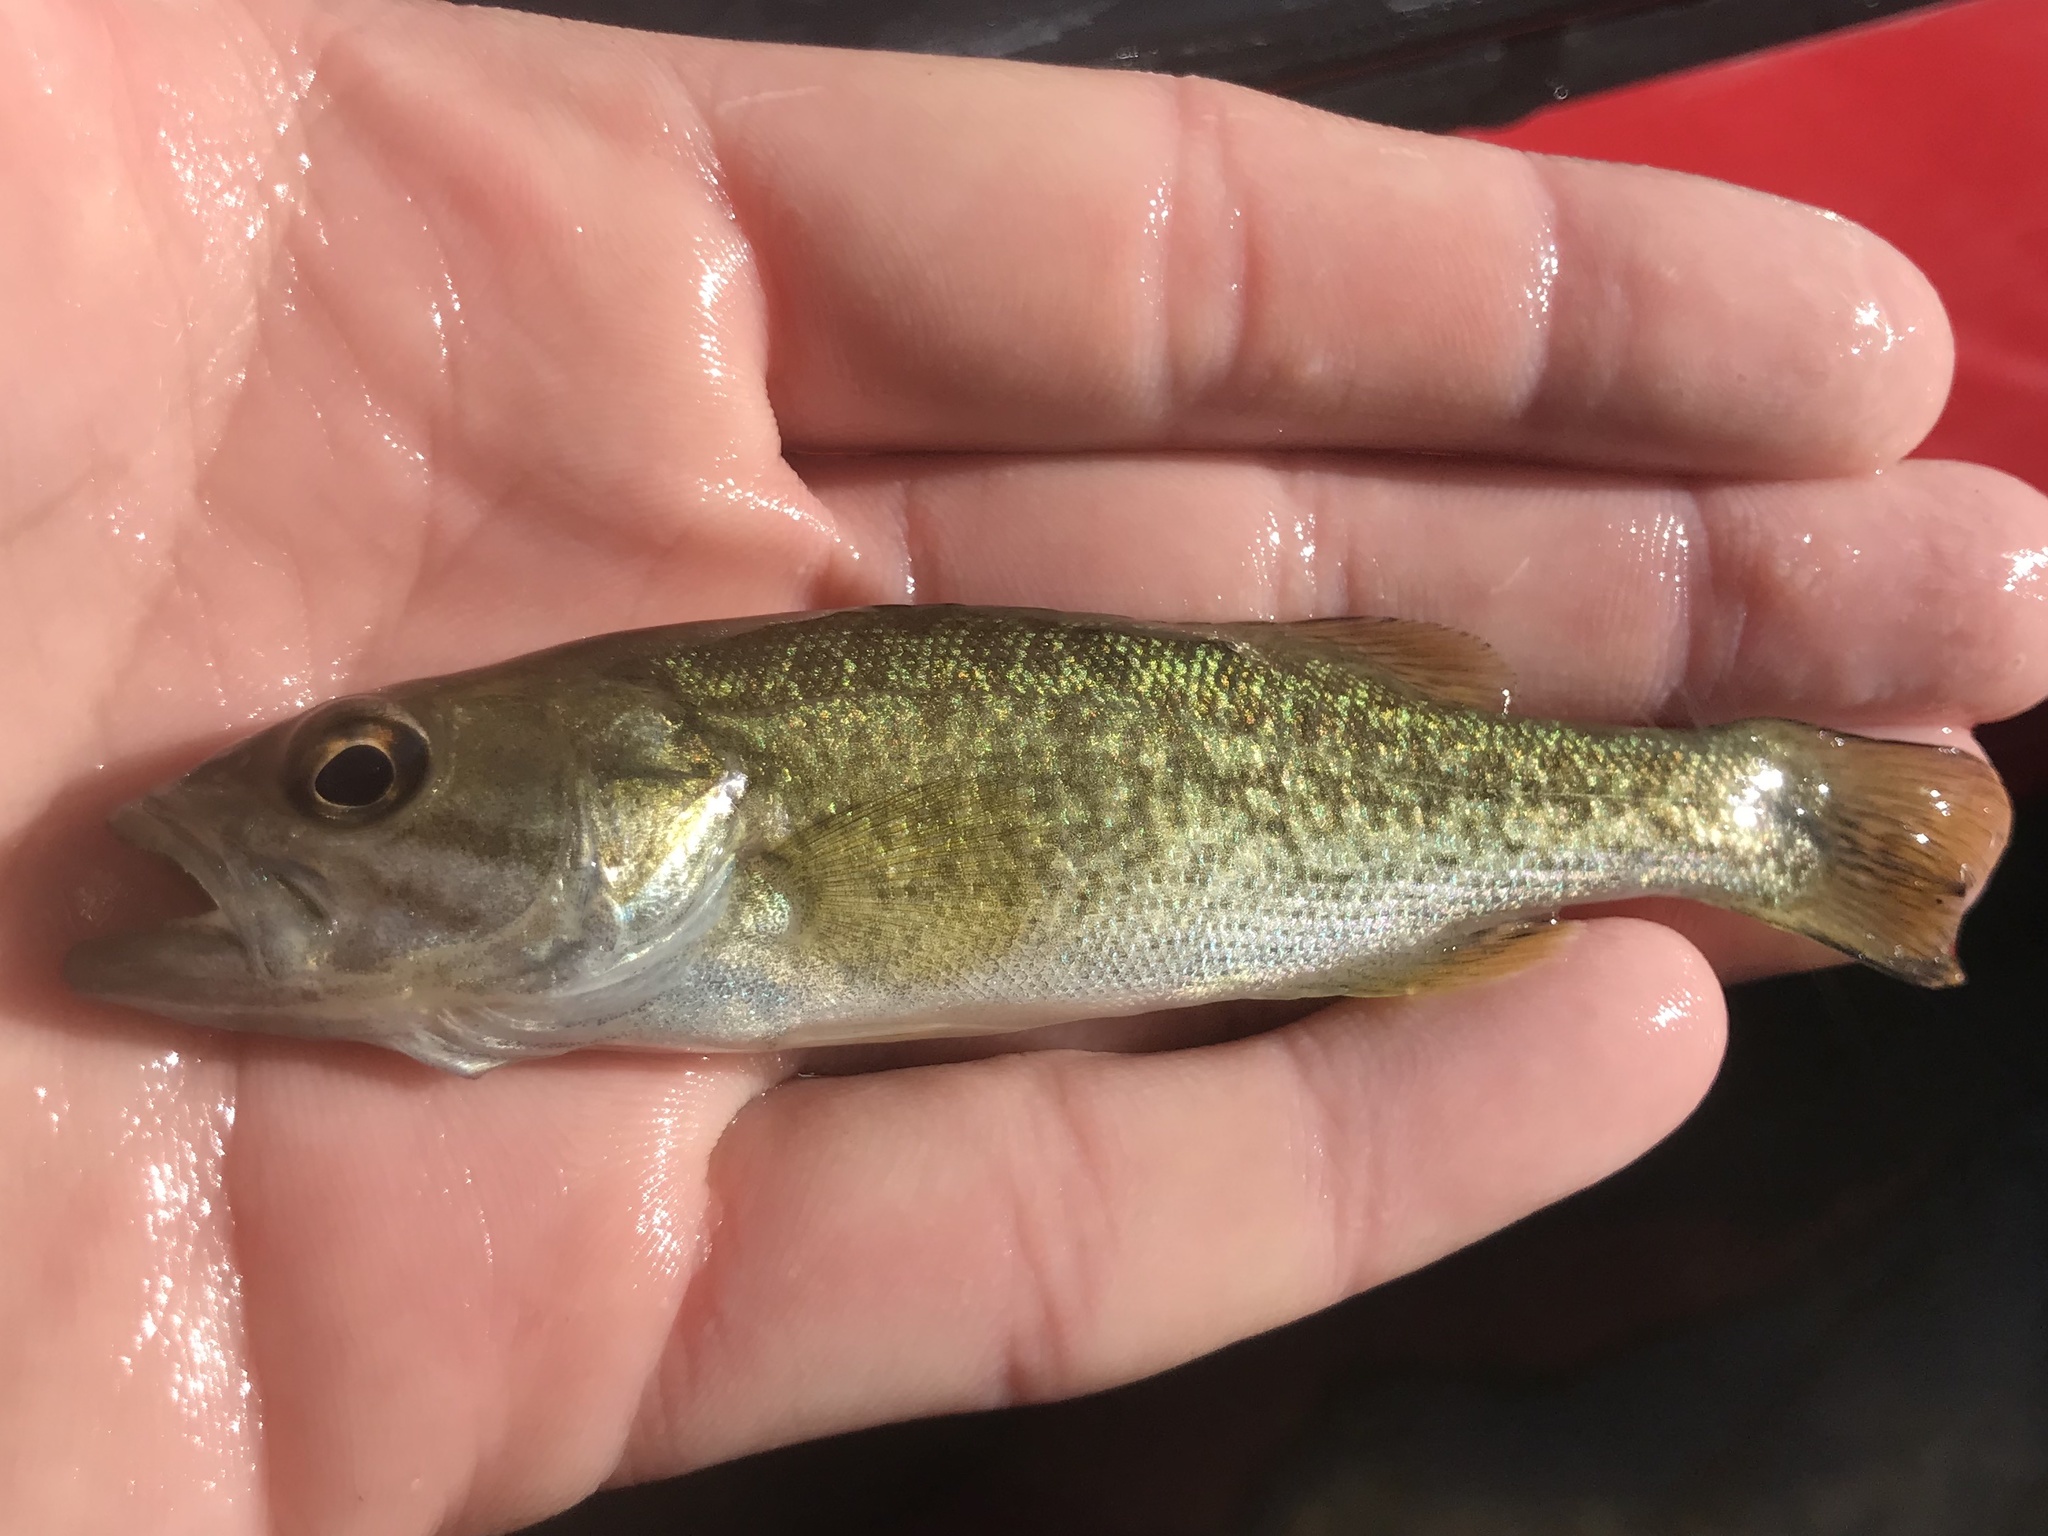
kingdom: Animalia
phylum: Chordata
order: Perciformes
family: Centrarchidae
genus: Micropterus
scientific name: Micropterus treculii
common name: Guadalupe bass
